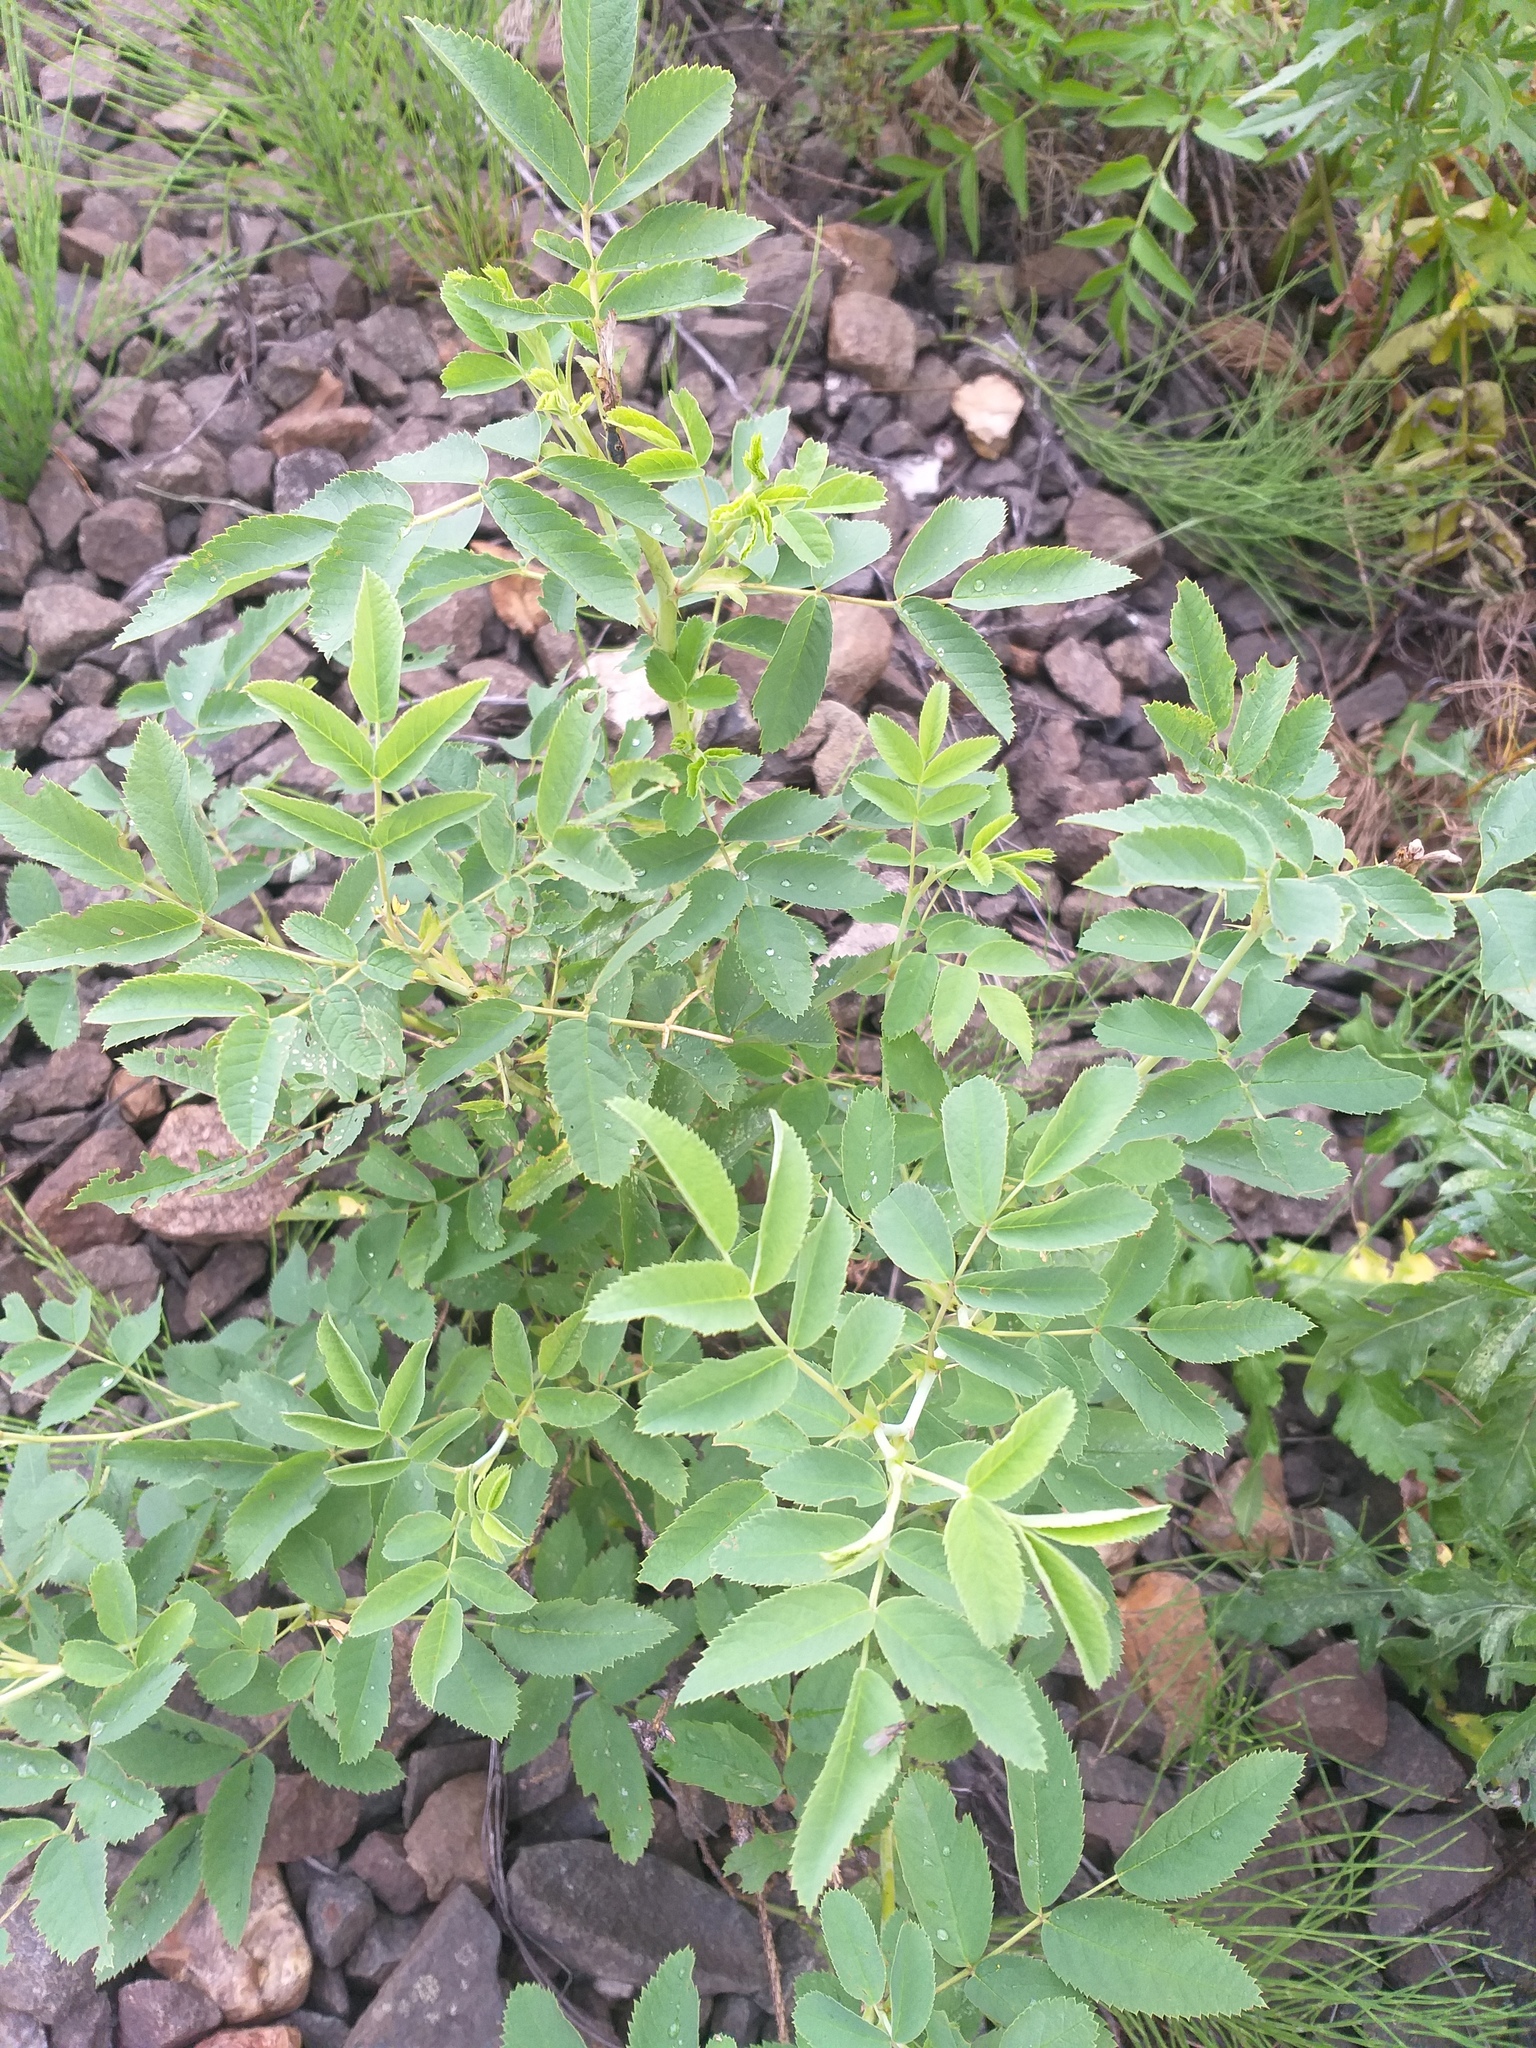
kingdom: Plantae
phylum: Tracheophyta
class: Magnoliopsida
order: Rosales
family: Rosaceae
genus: Rosa
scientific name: Rosa majalis
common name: Cinnamon rose
